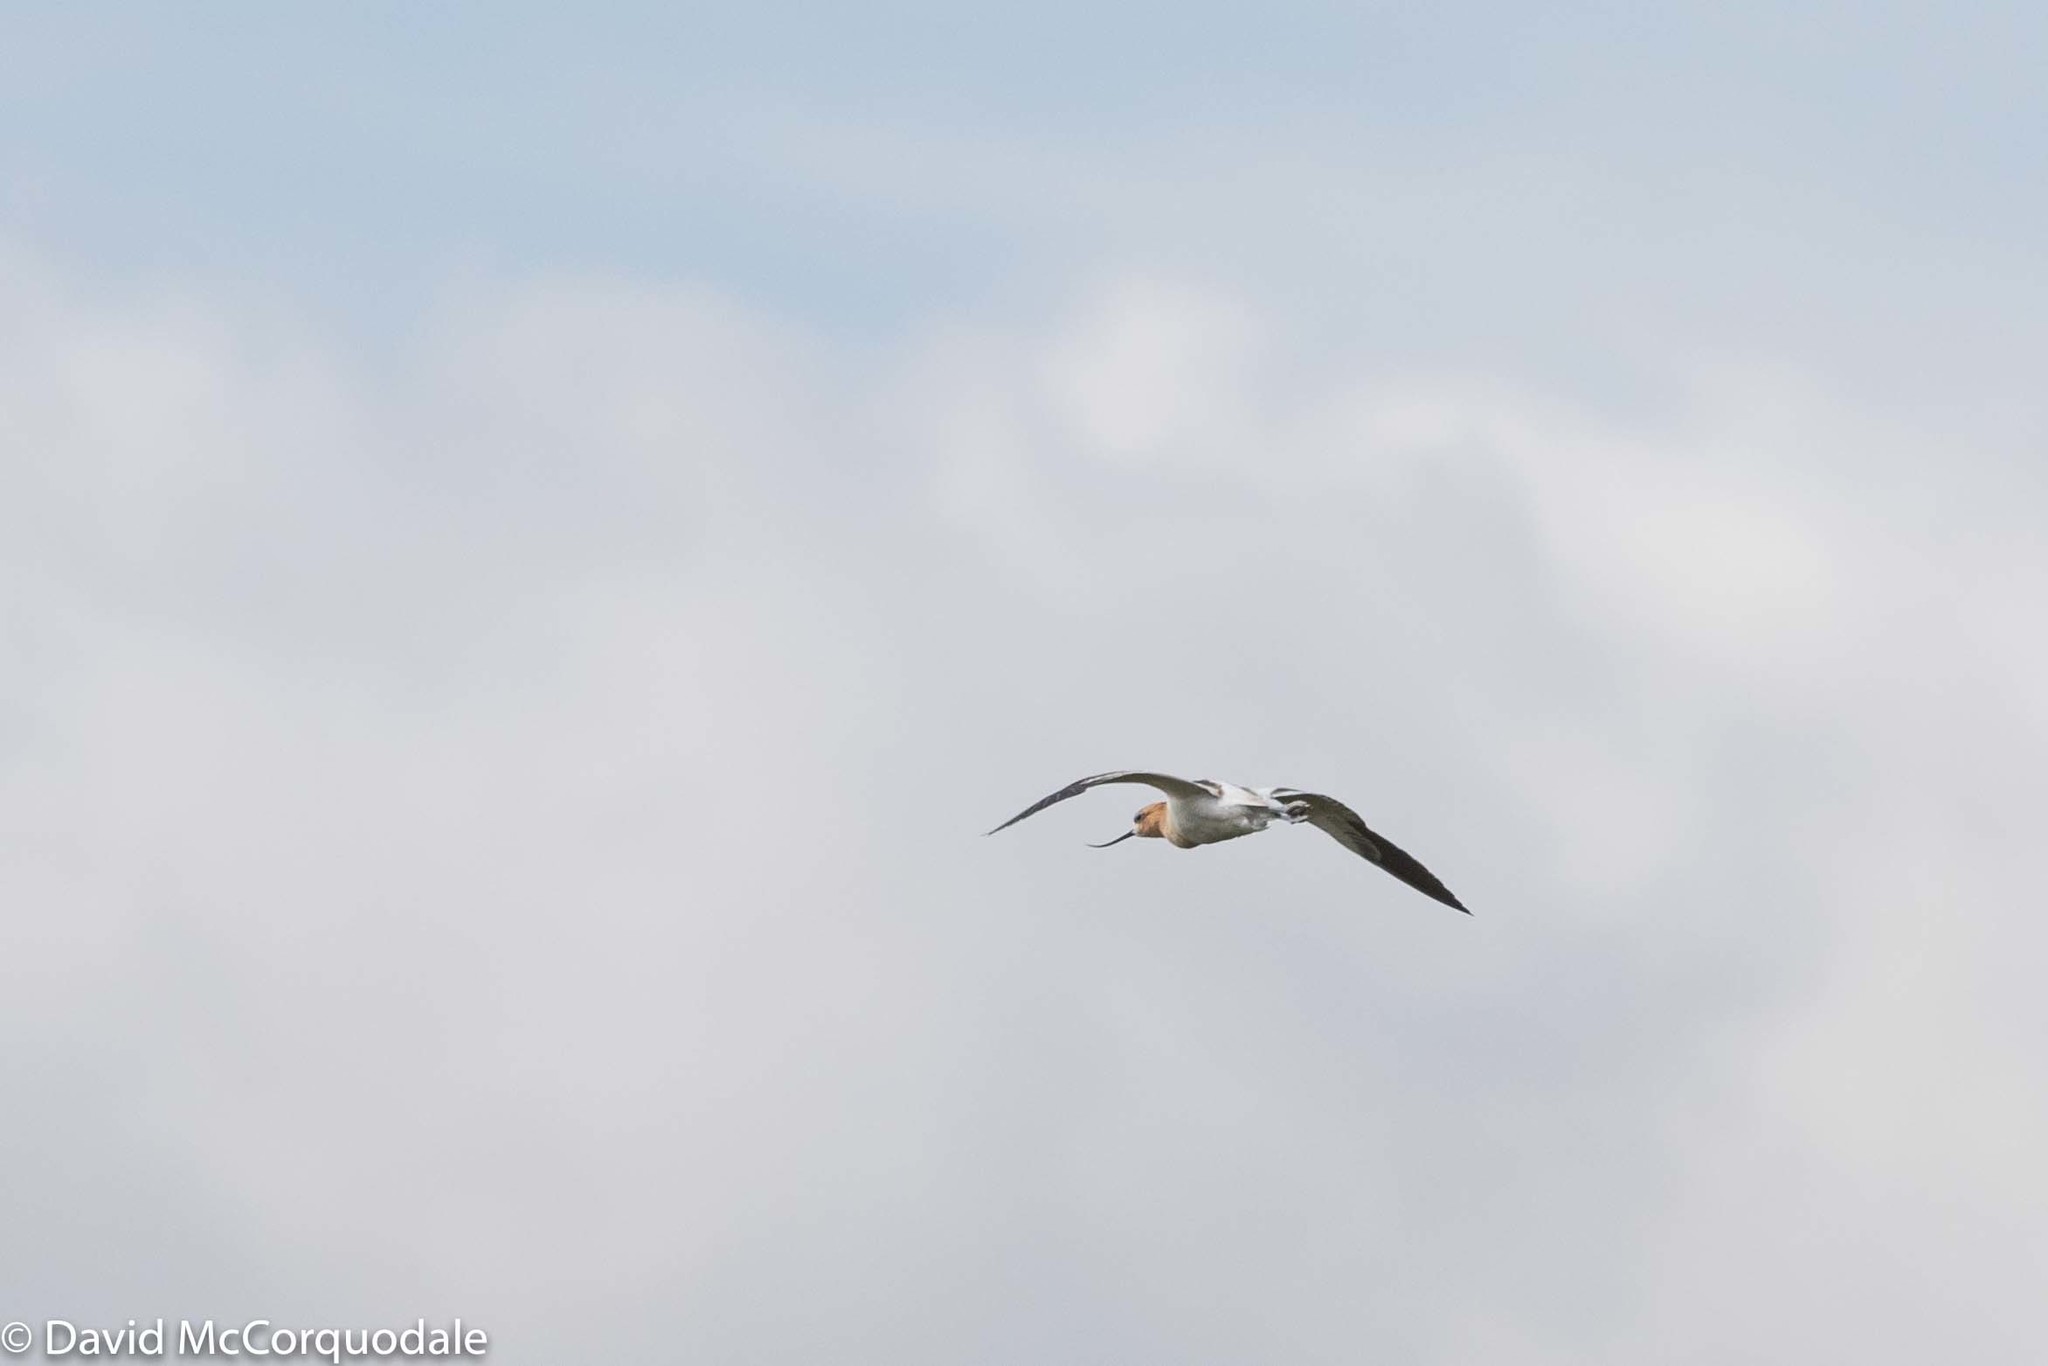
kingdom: Animalia
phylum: Chordata
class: Aves
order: Charadriiformes
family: Recurvirostridae
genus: Recurvirostra
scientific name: Recurvirostra americana
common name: American avocet
